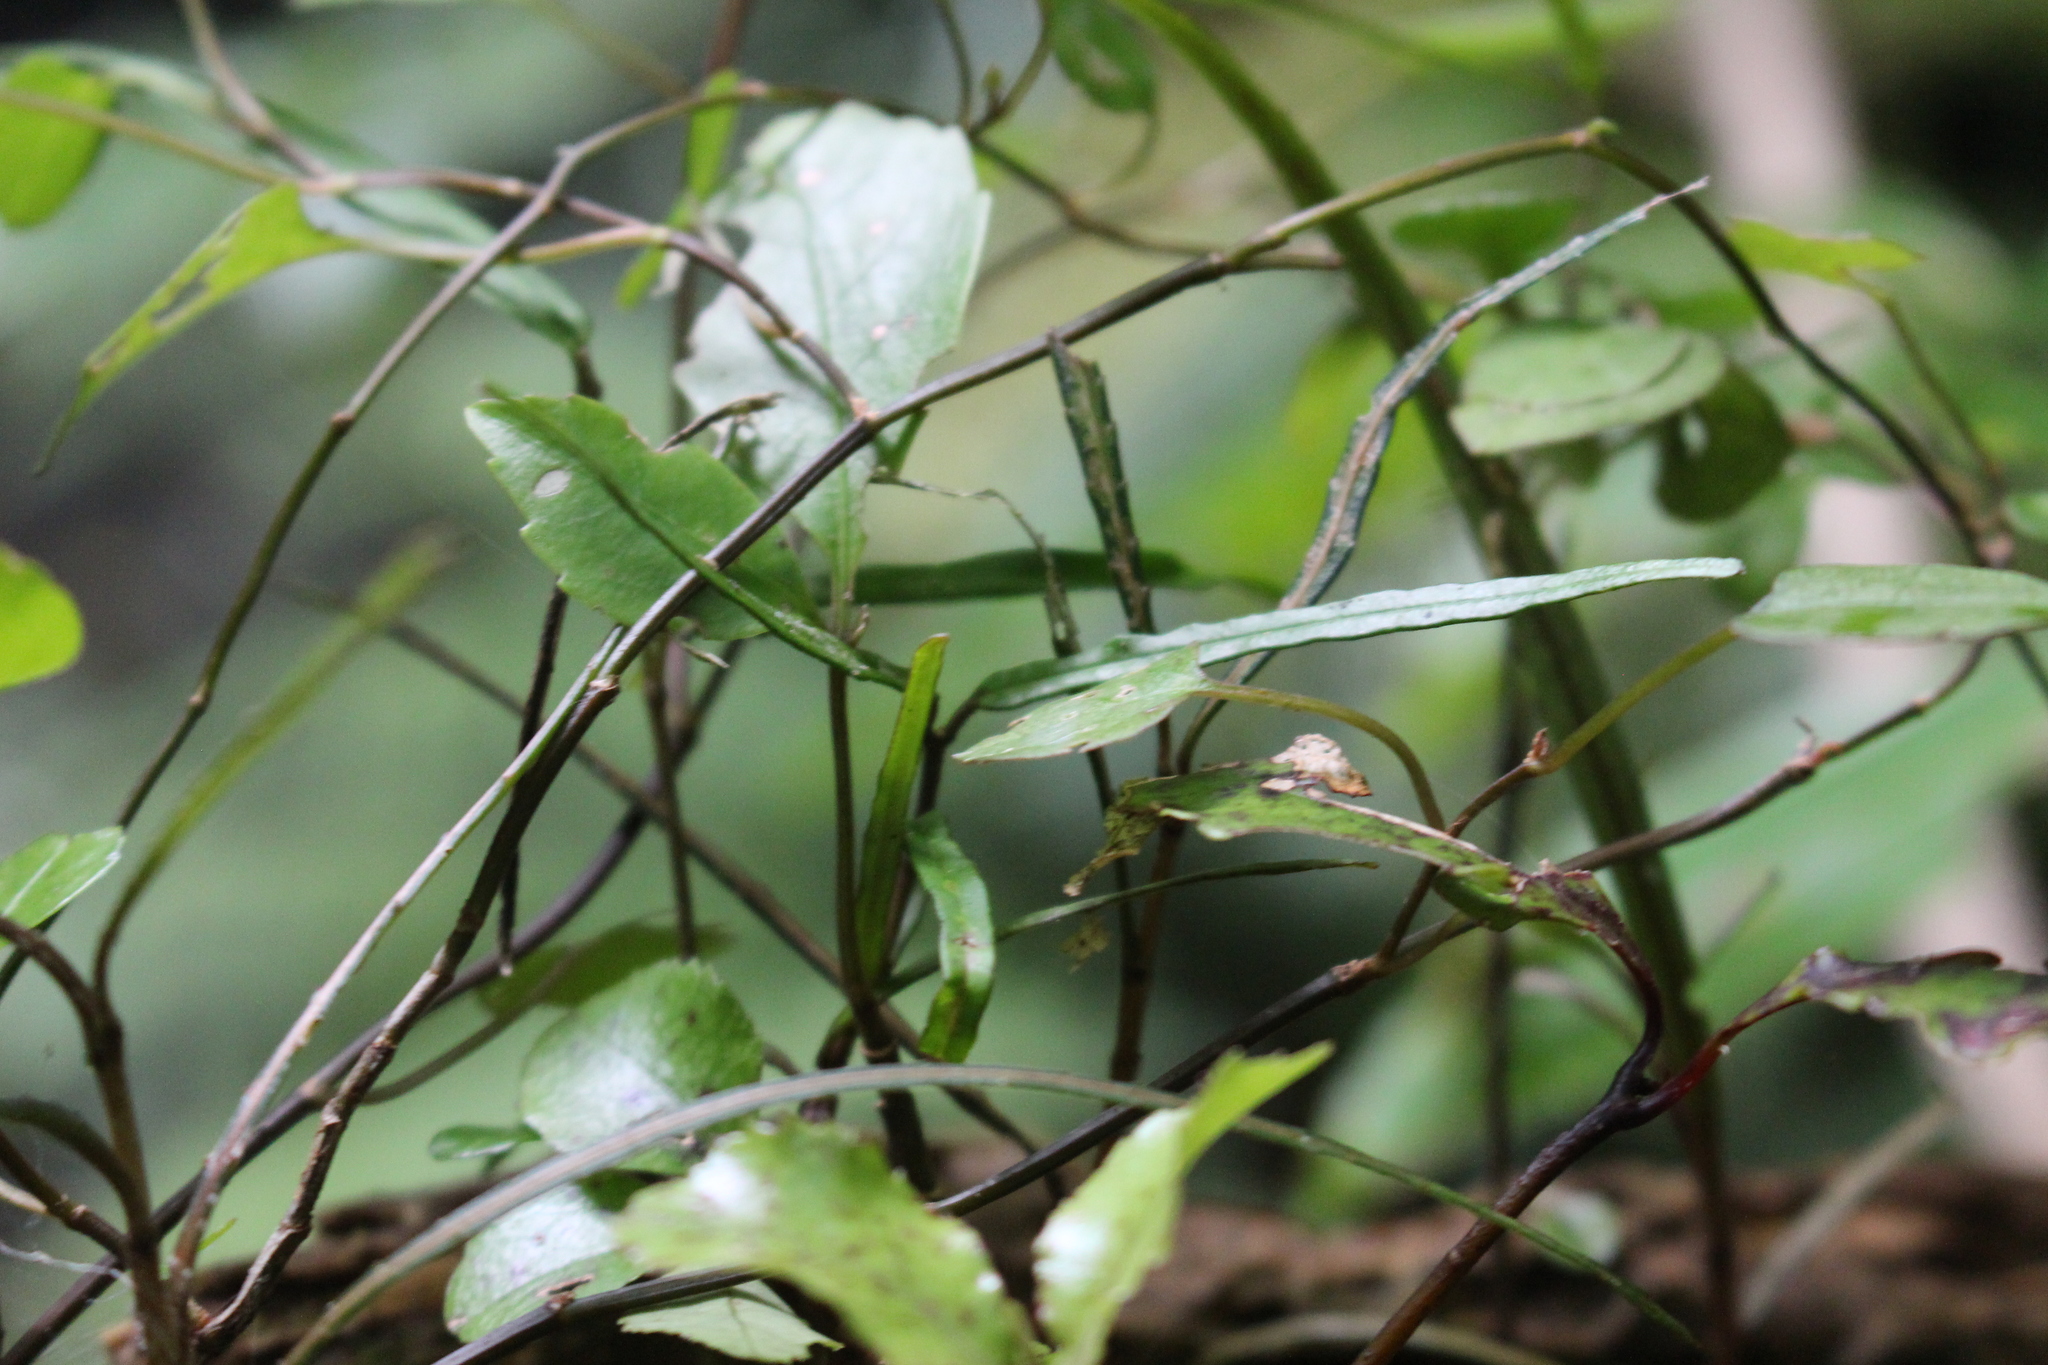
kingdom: Plantae
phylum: Tracheophyta
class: Magnoliopsida
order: Gentianales
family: Apocynaceae
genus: Parsonsia
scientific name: Parsonsia heterophylla
